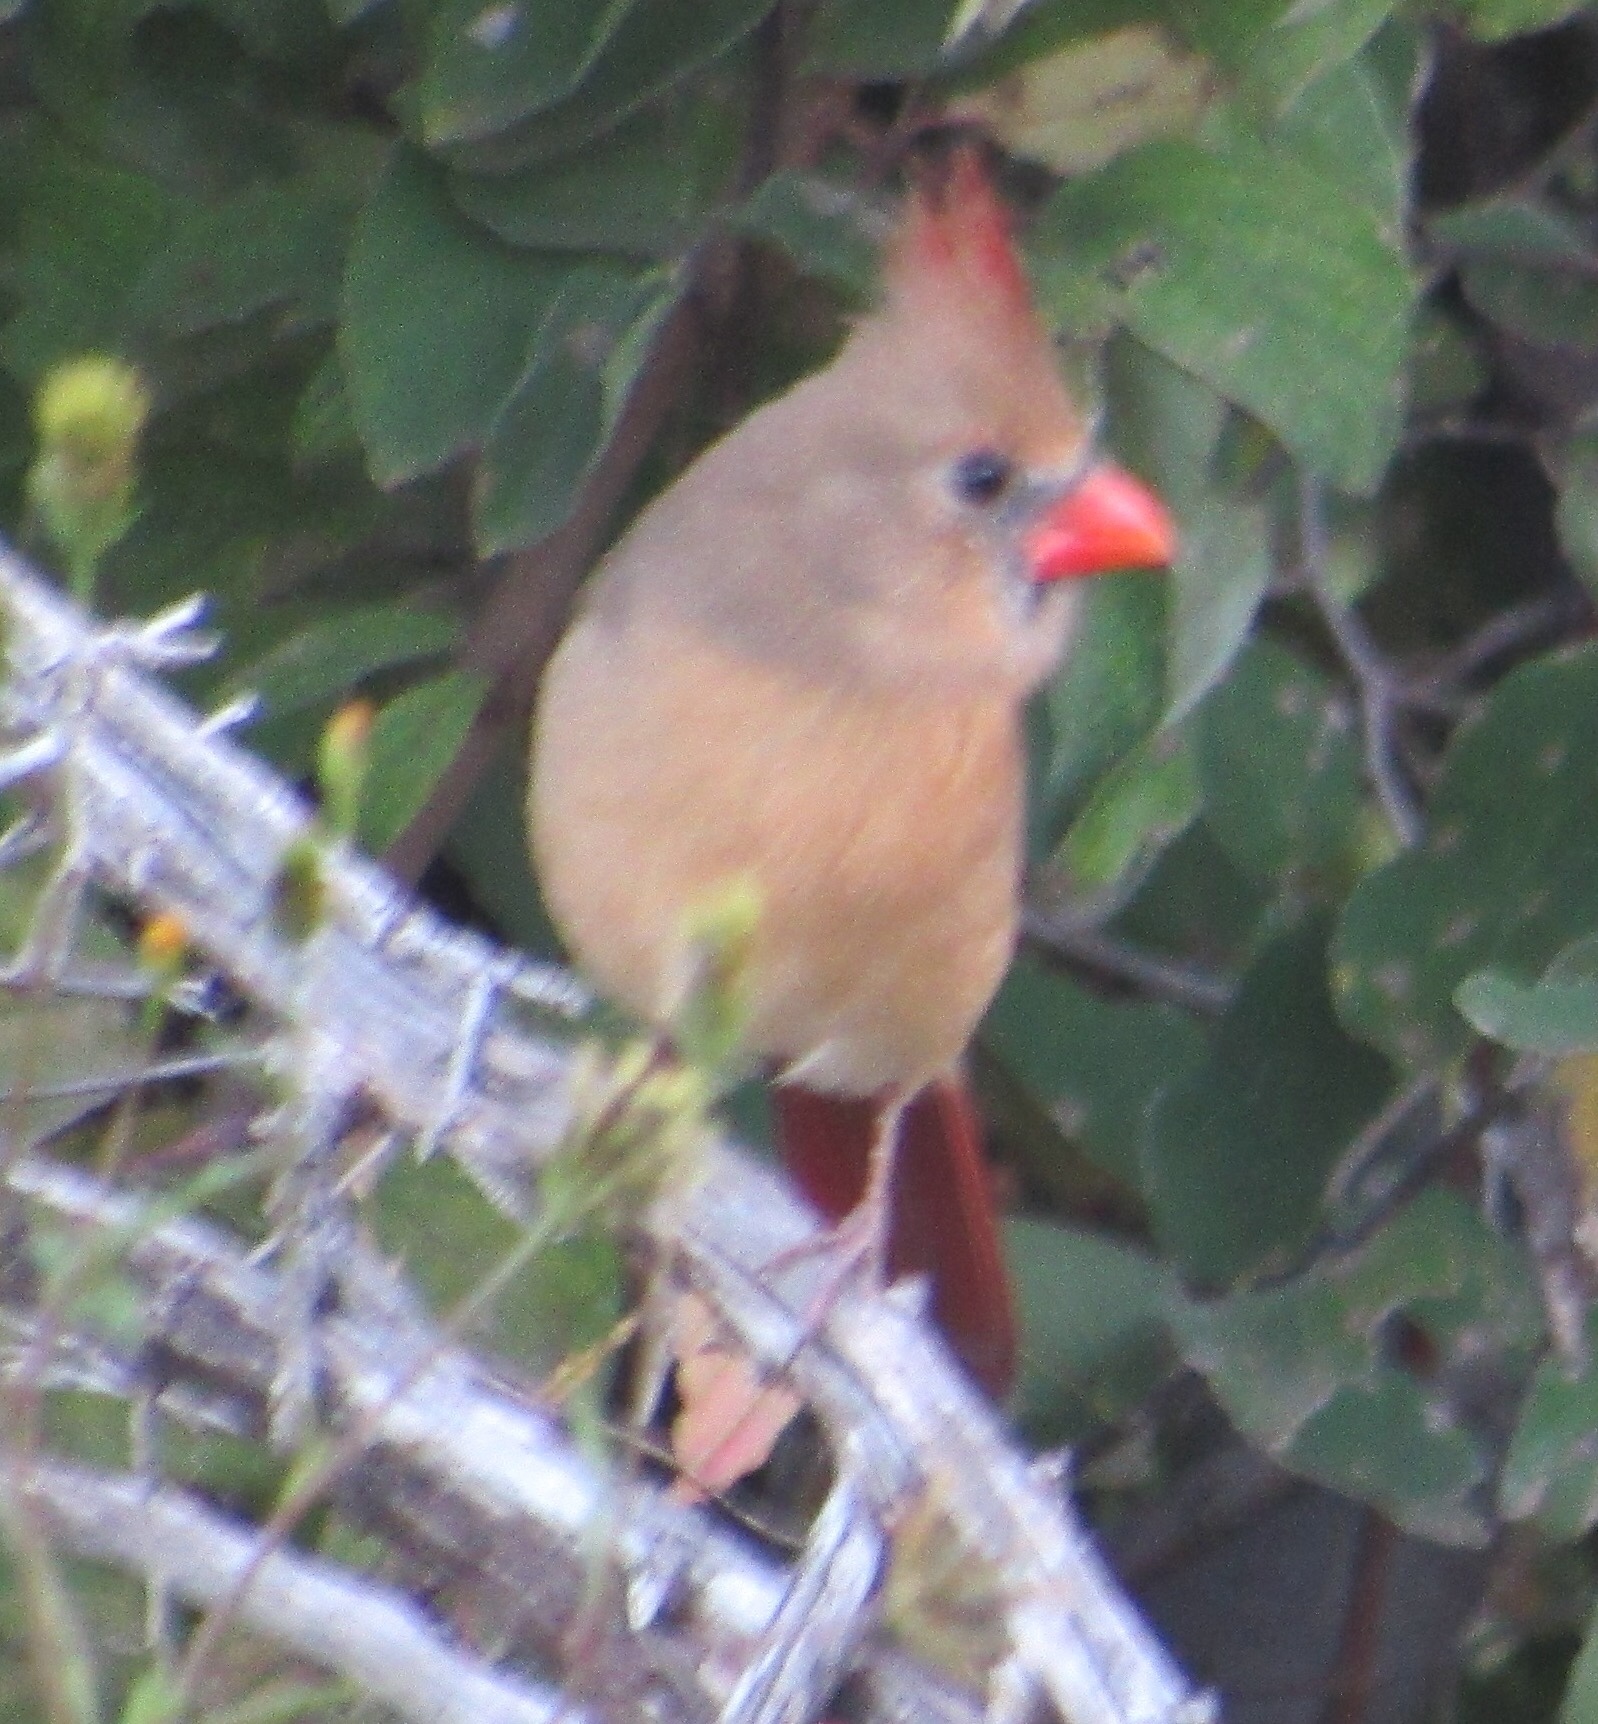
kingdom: Animalia
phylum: Chordata
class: Aves
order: Passeriformes
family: Cardinalidae
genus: Cardinalis
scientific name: Cardinalis cardinalis
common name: Northern cardinal
